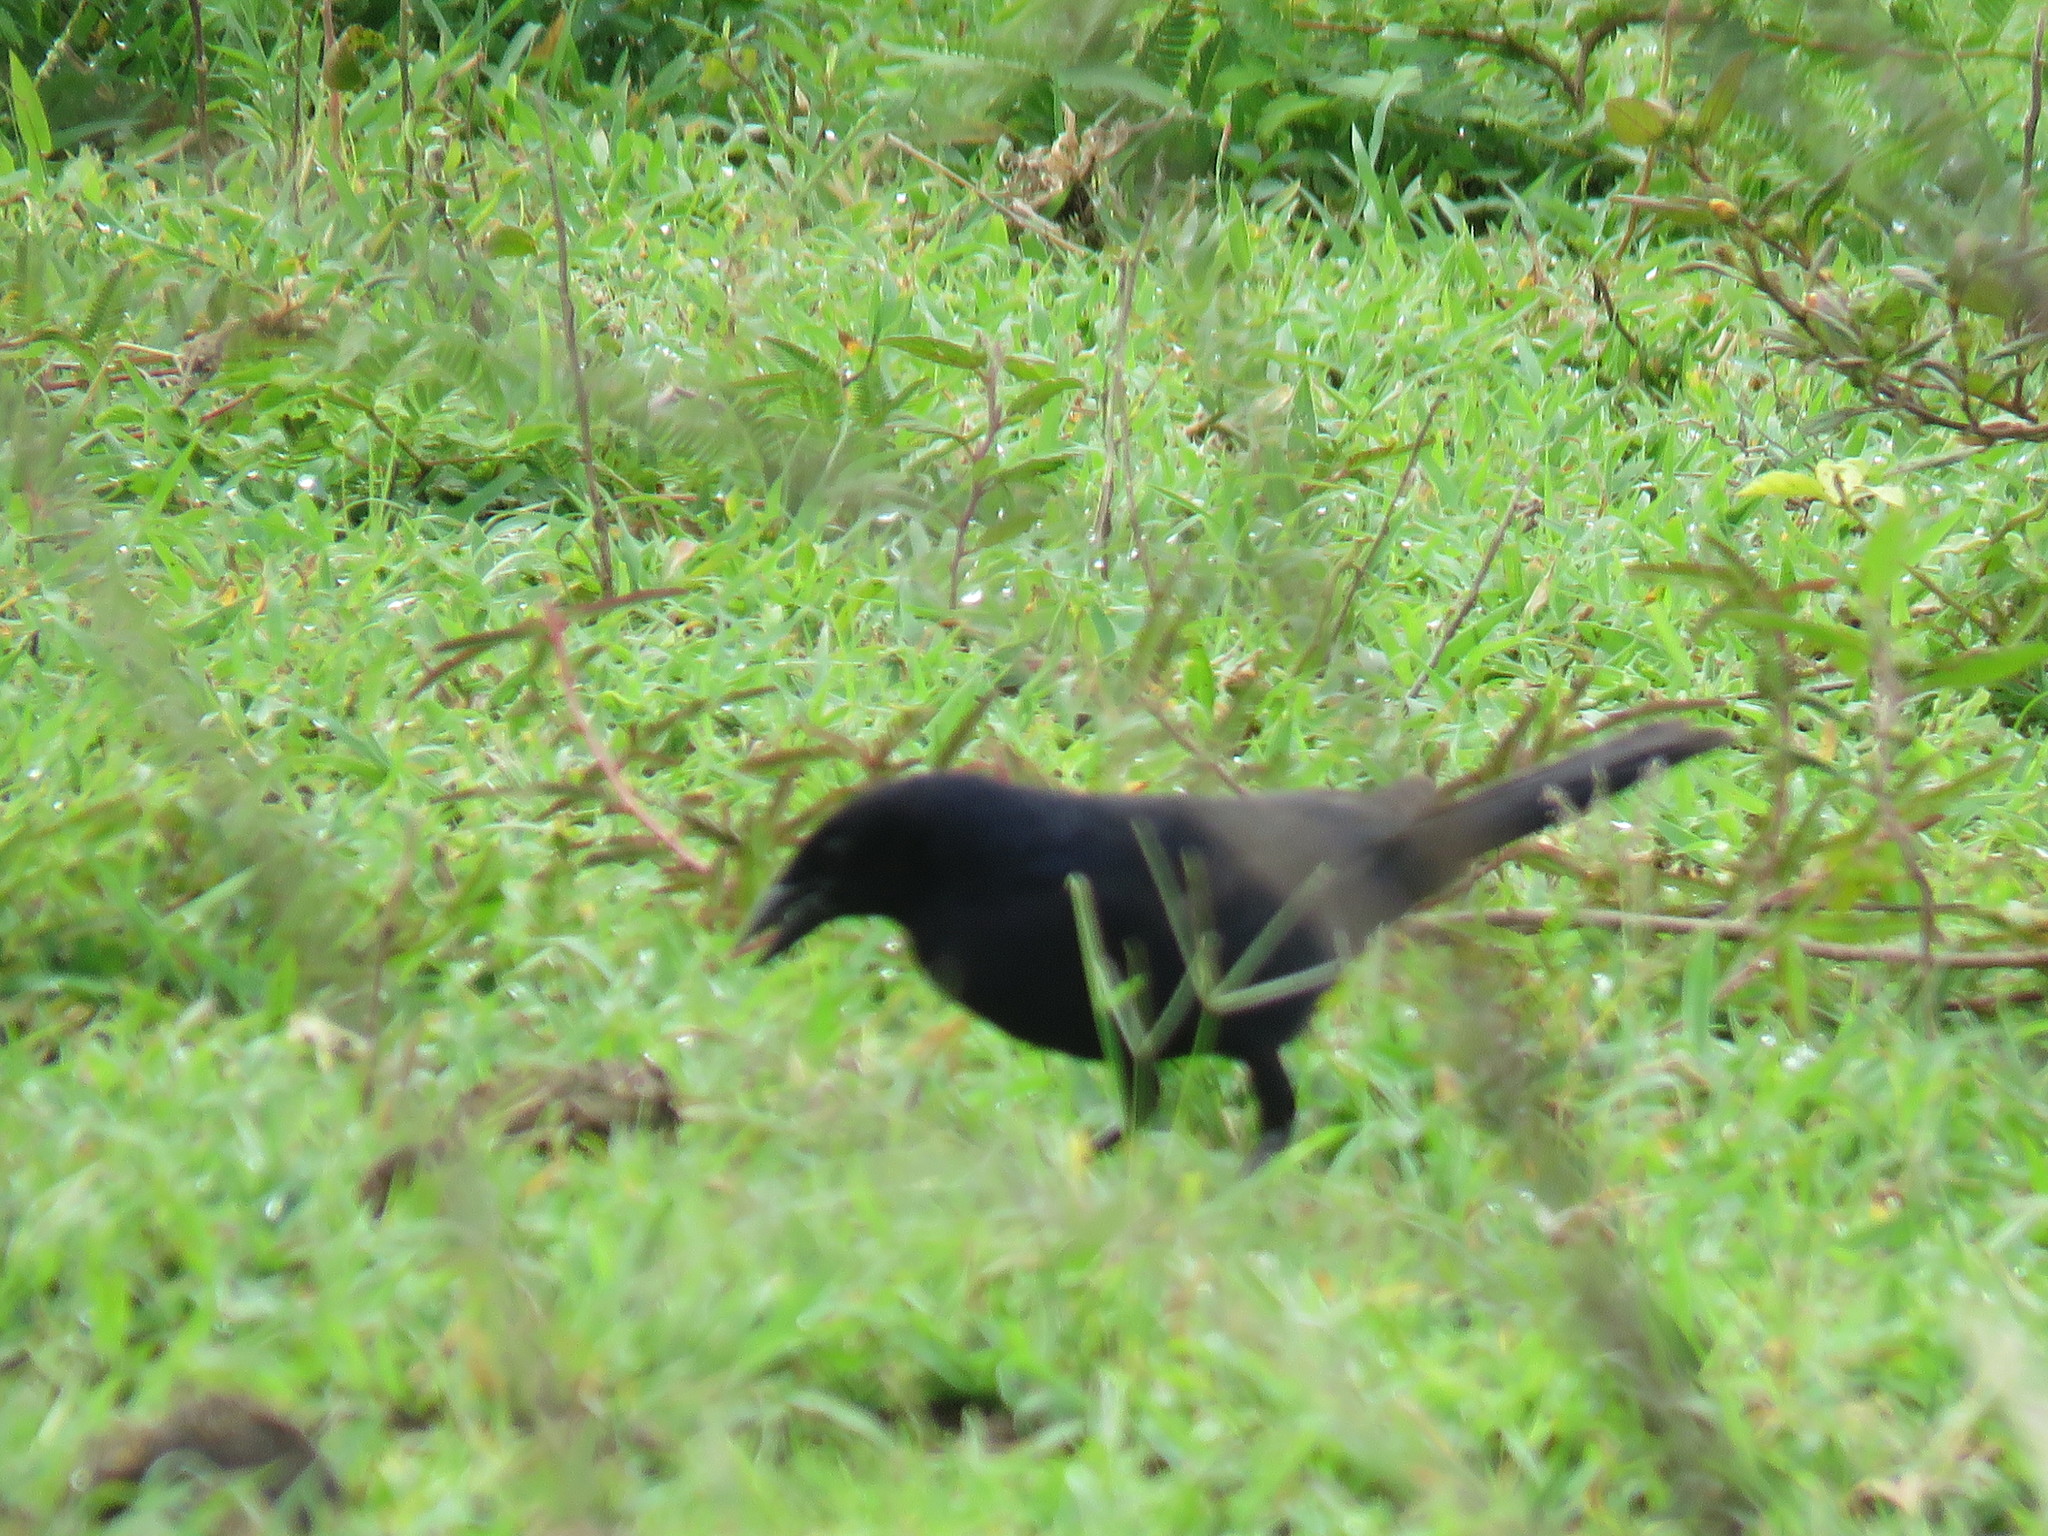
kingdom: Animalia
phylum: Chordata
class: Aves
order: Passeriformes
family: Icteridae
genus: Dives
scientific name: Dives dives
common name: Melodious blackbird
